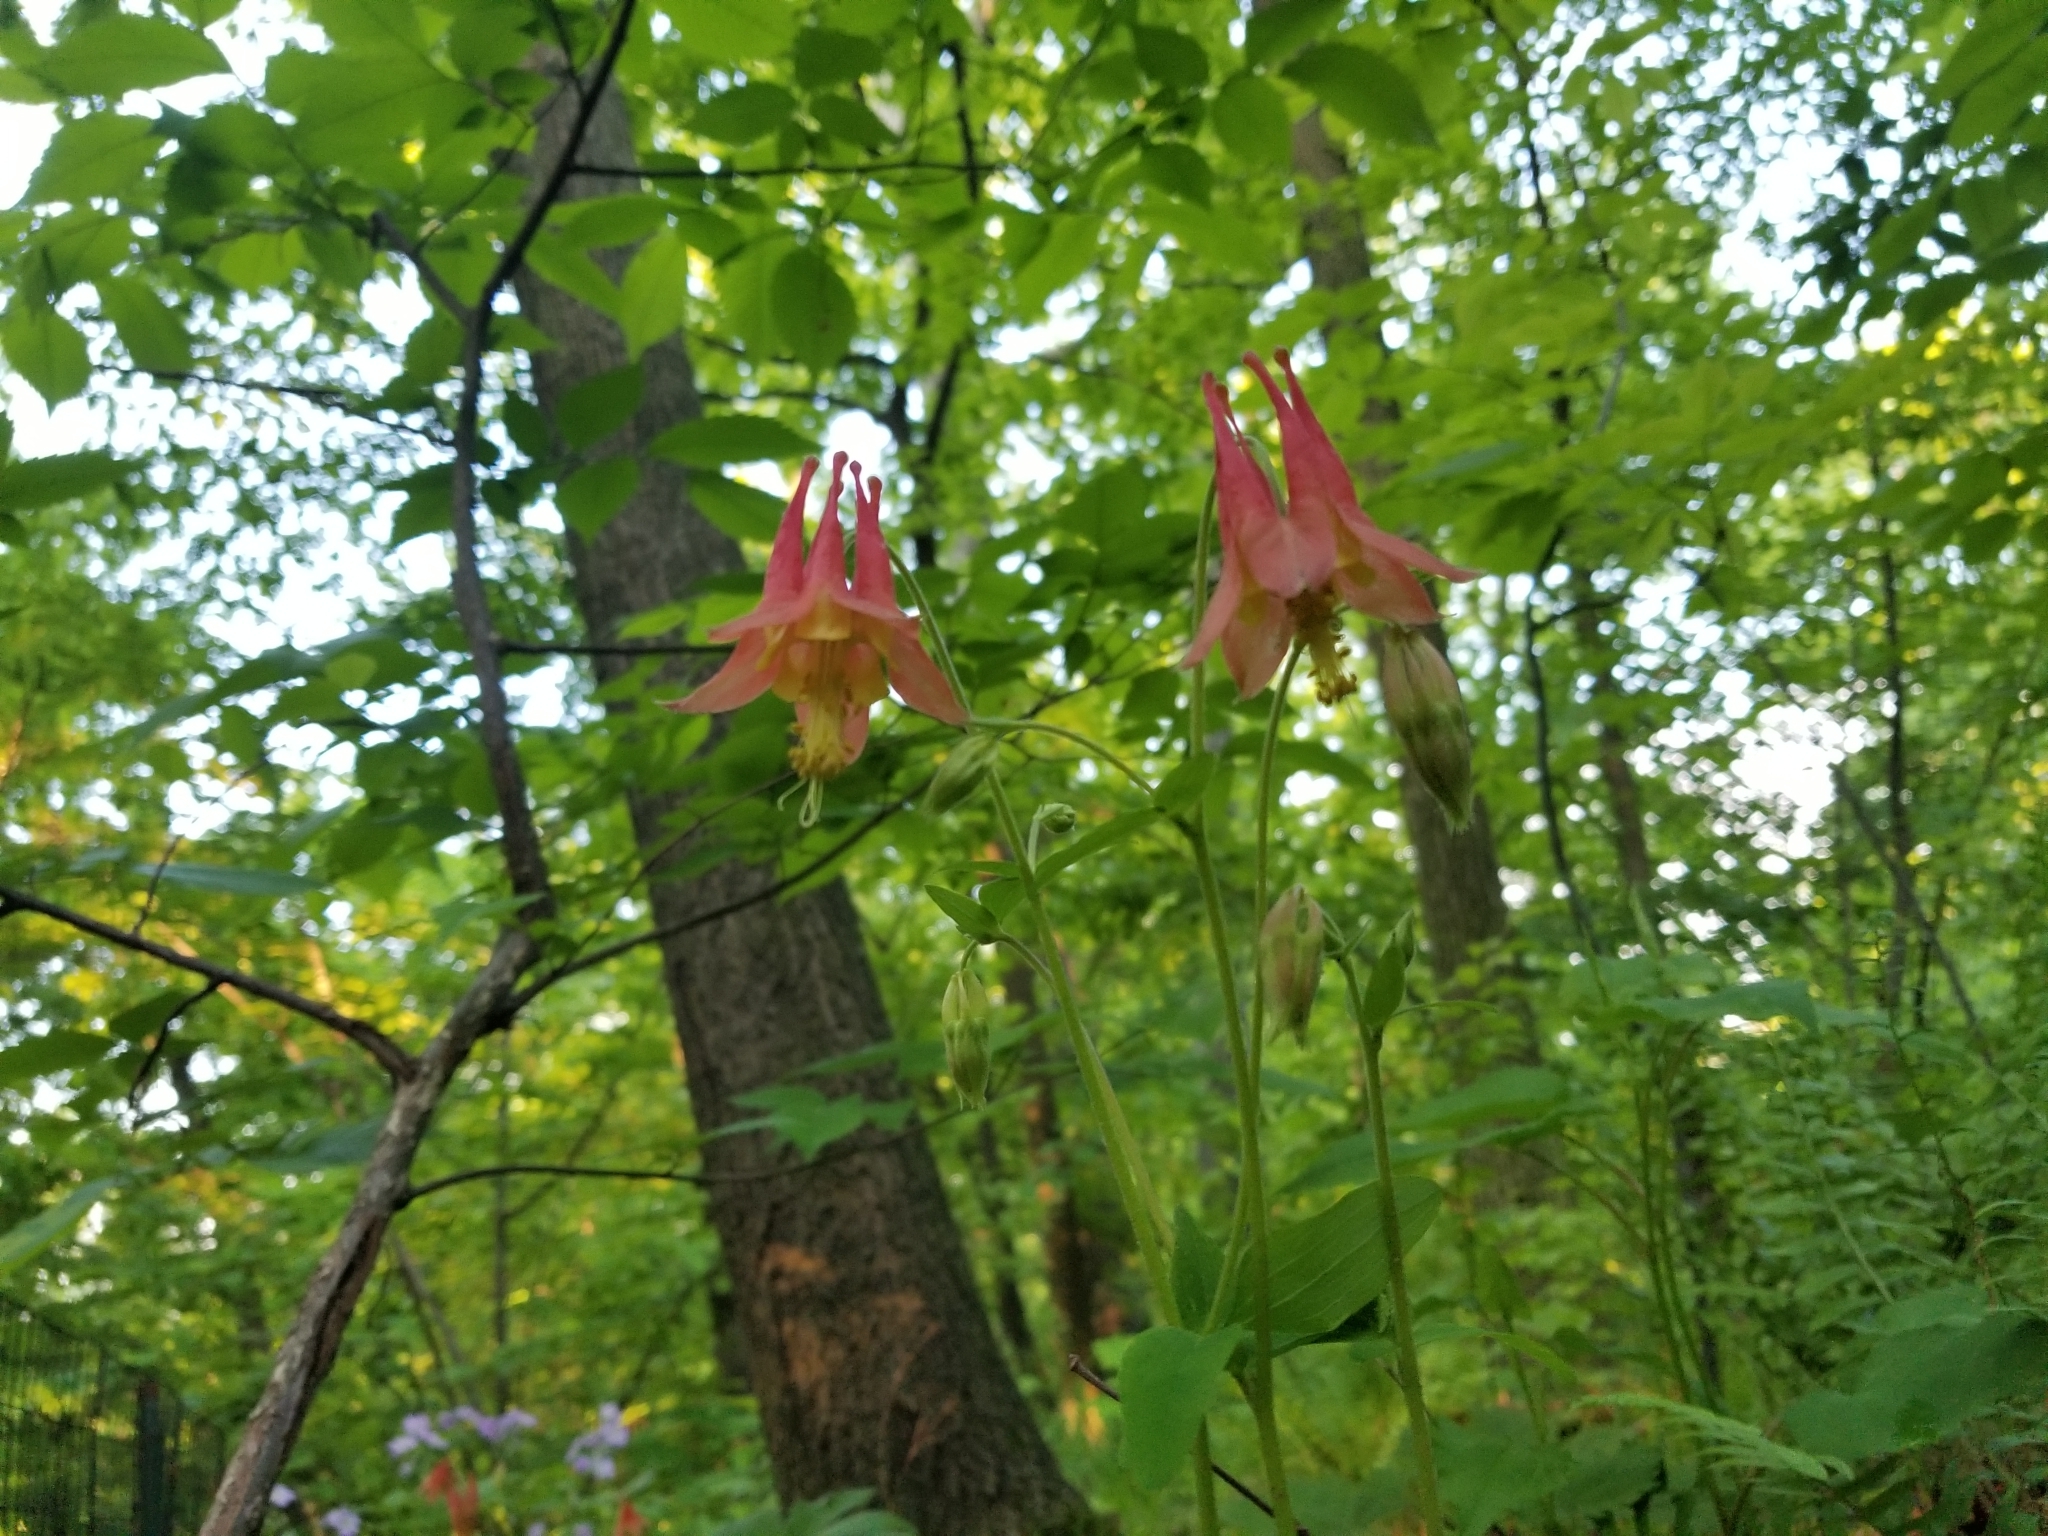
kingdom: Plantae
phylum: Tracheophyta
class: Magnoliopsida
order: Ranunculales
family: Ranunculaceae
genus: Aquilegia
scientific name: Aquilegia canadensis
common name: American columbine
